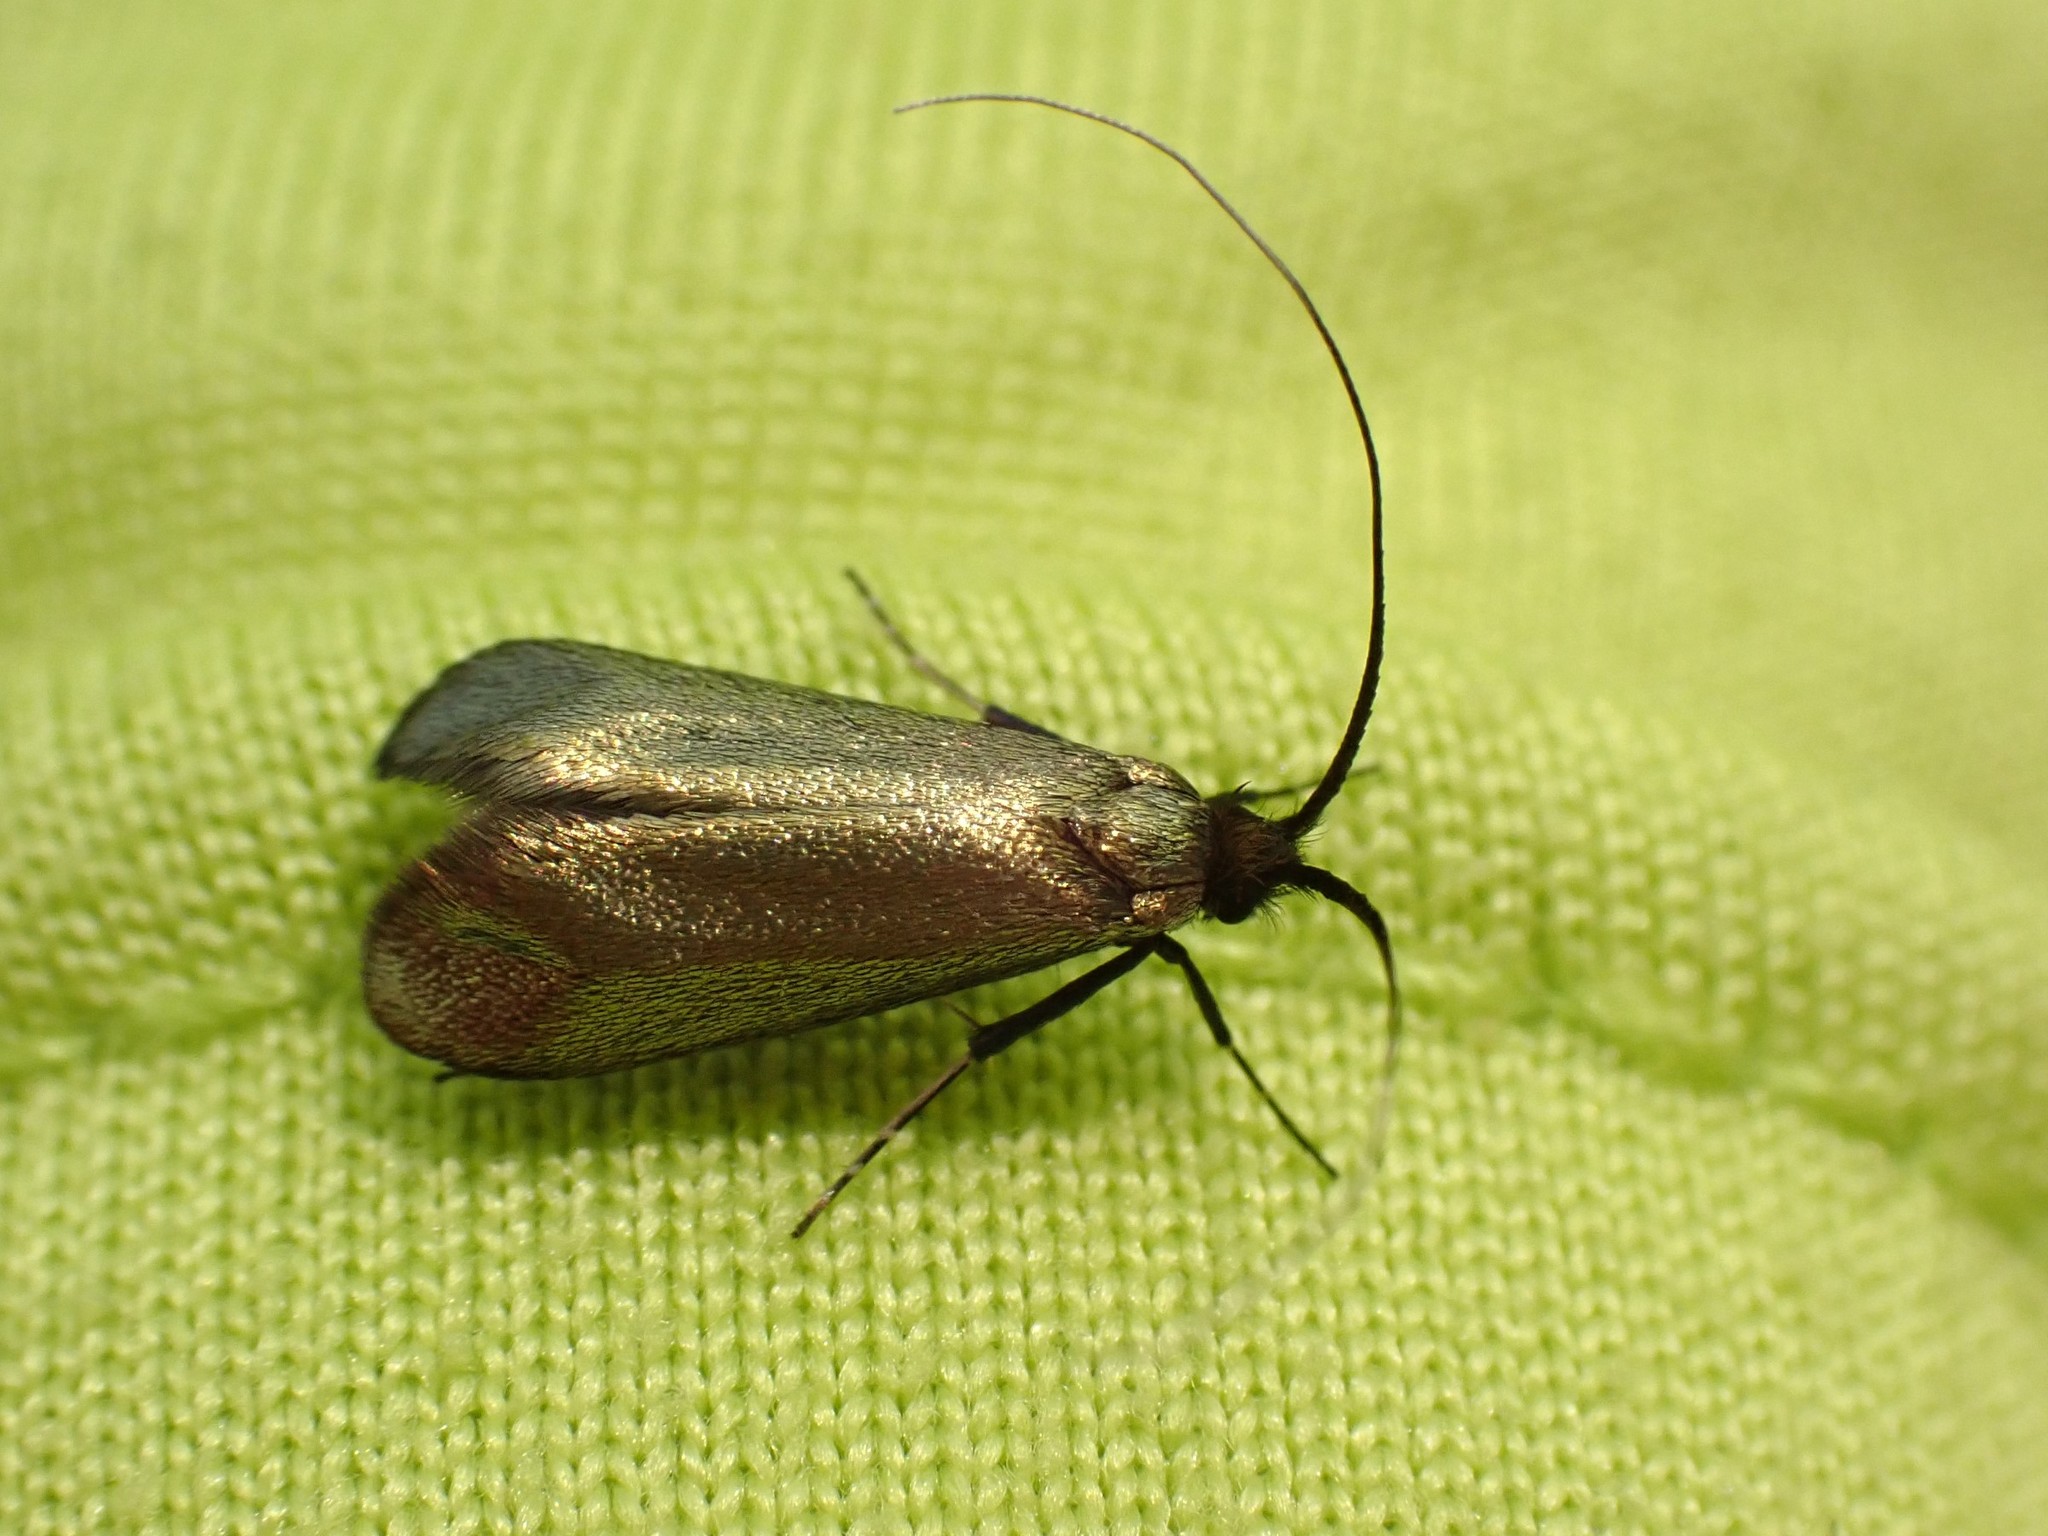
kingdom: Animalia
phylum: Arthropoda
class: Insecta
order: Lepidoptera
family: Adelidae
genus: Adela
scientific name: Adela viridella
